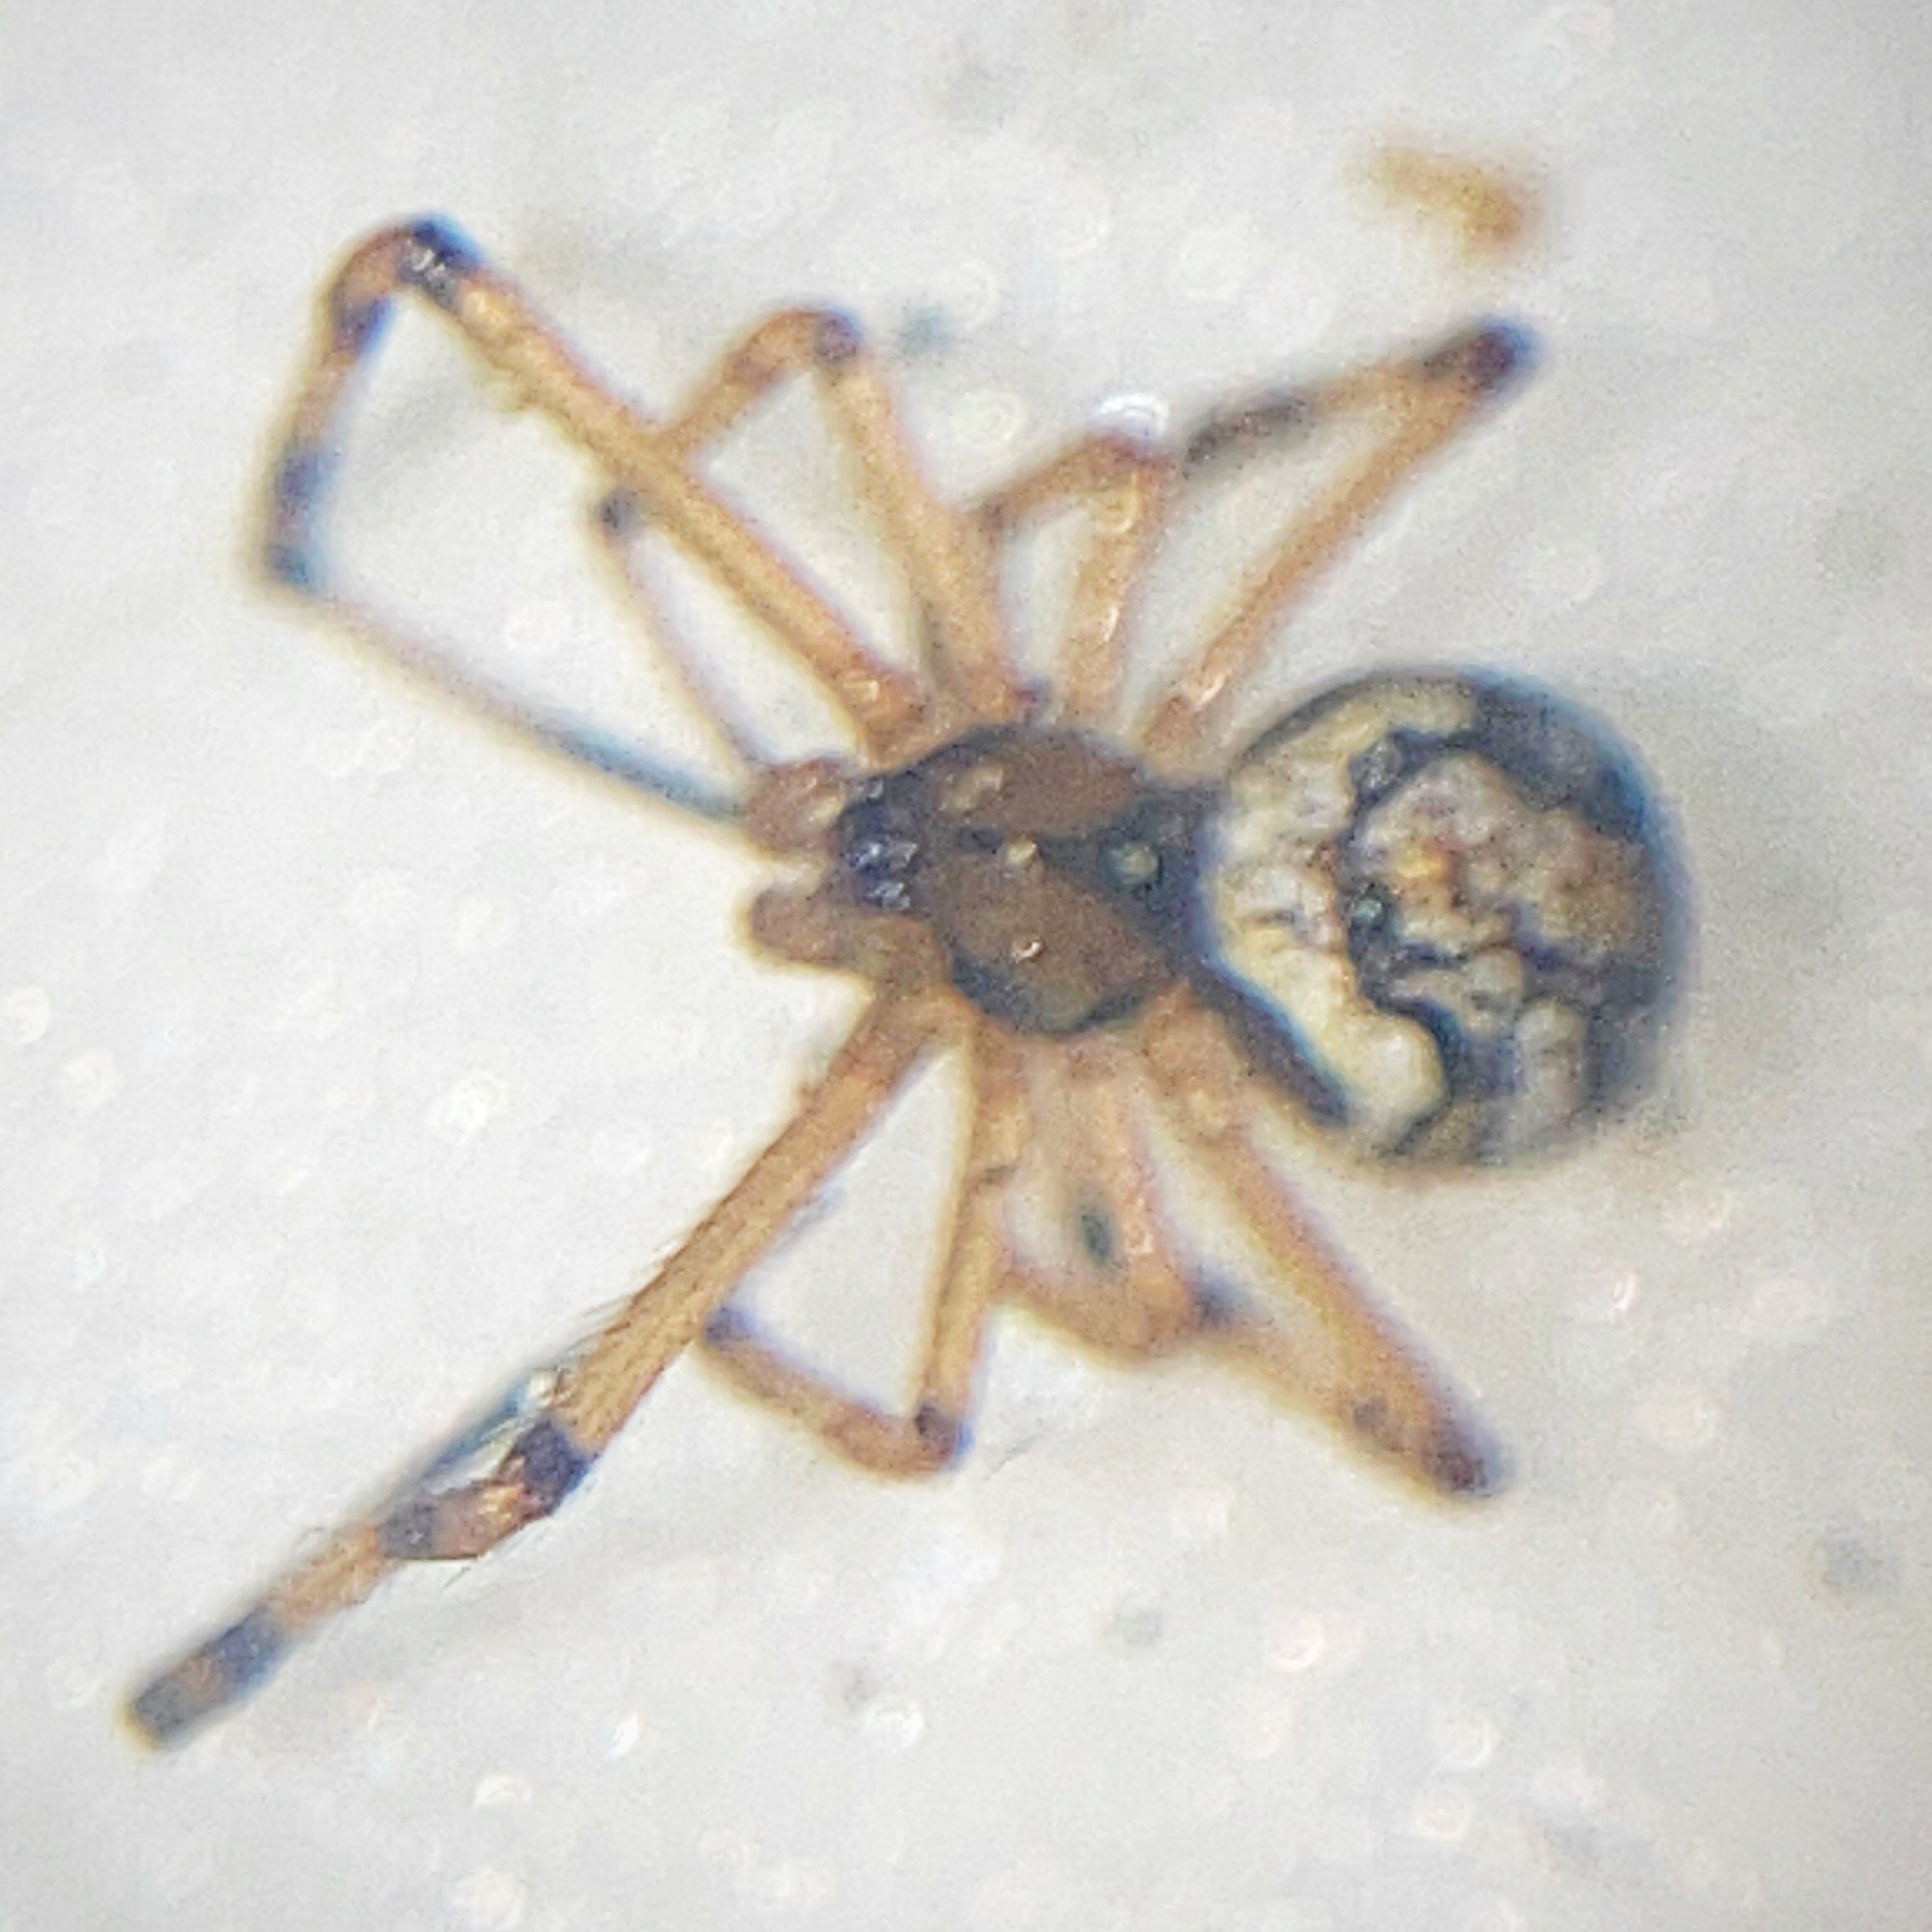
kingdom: Animalia
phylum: Arthropoda
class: Arachnida
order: Araneae
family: Theridiidae
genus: Latrodectus
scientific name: Latrodectus mactans
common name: Cobweb spiders
